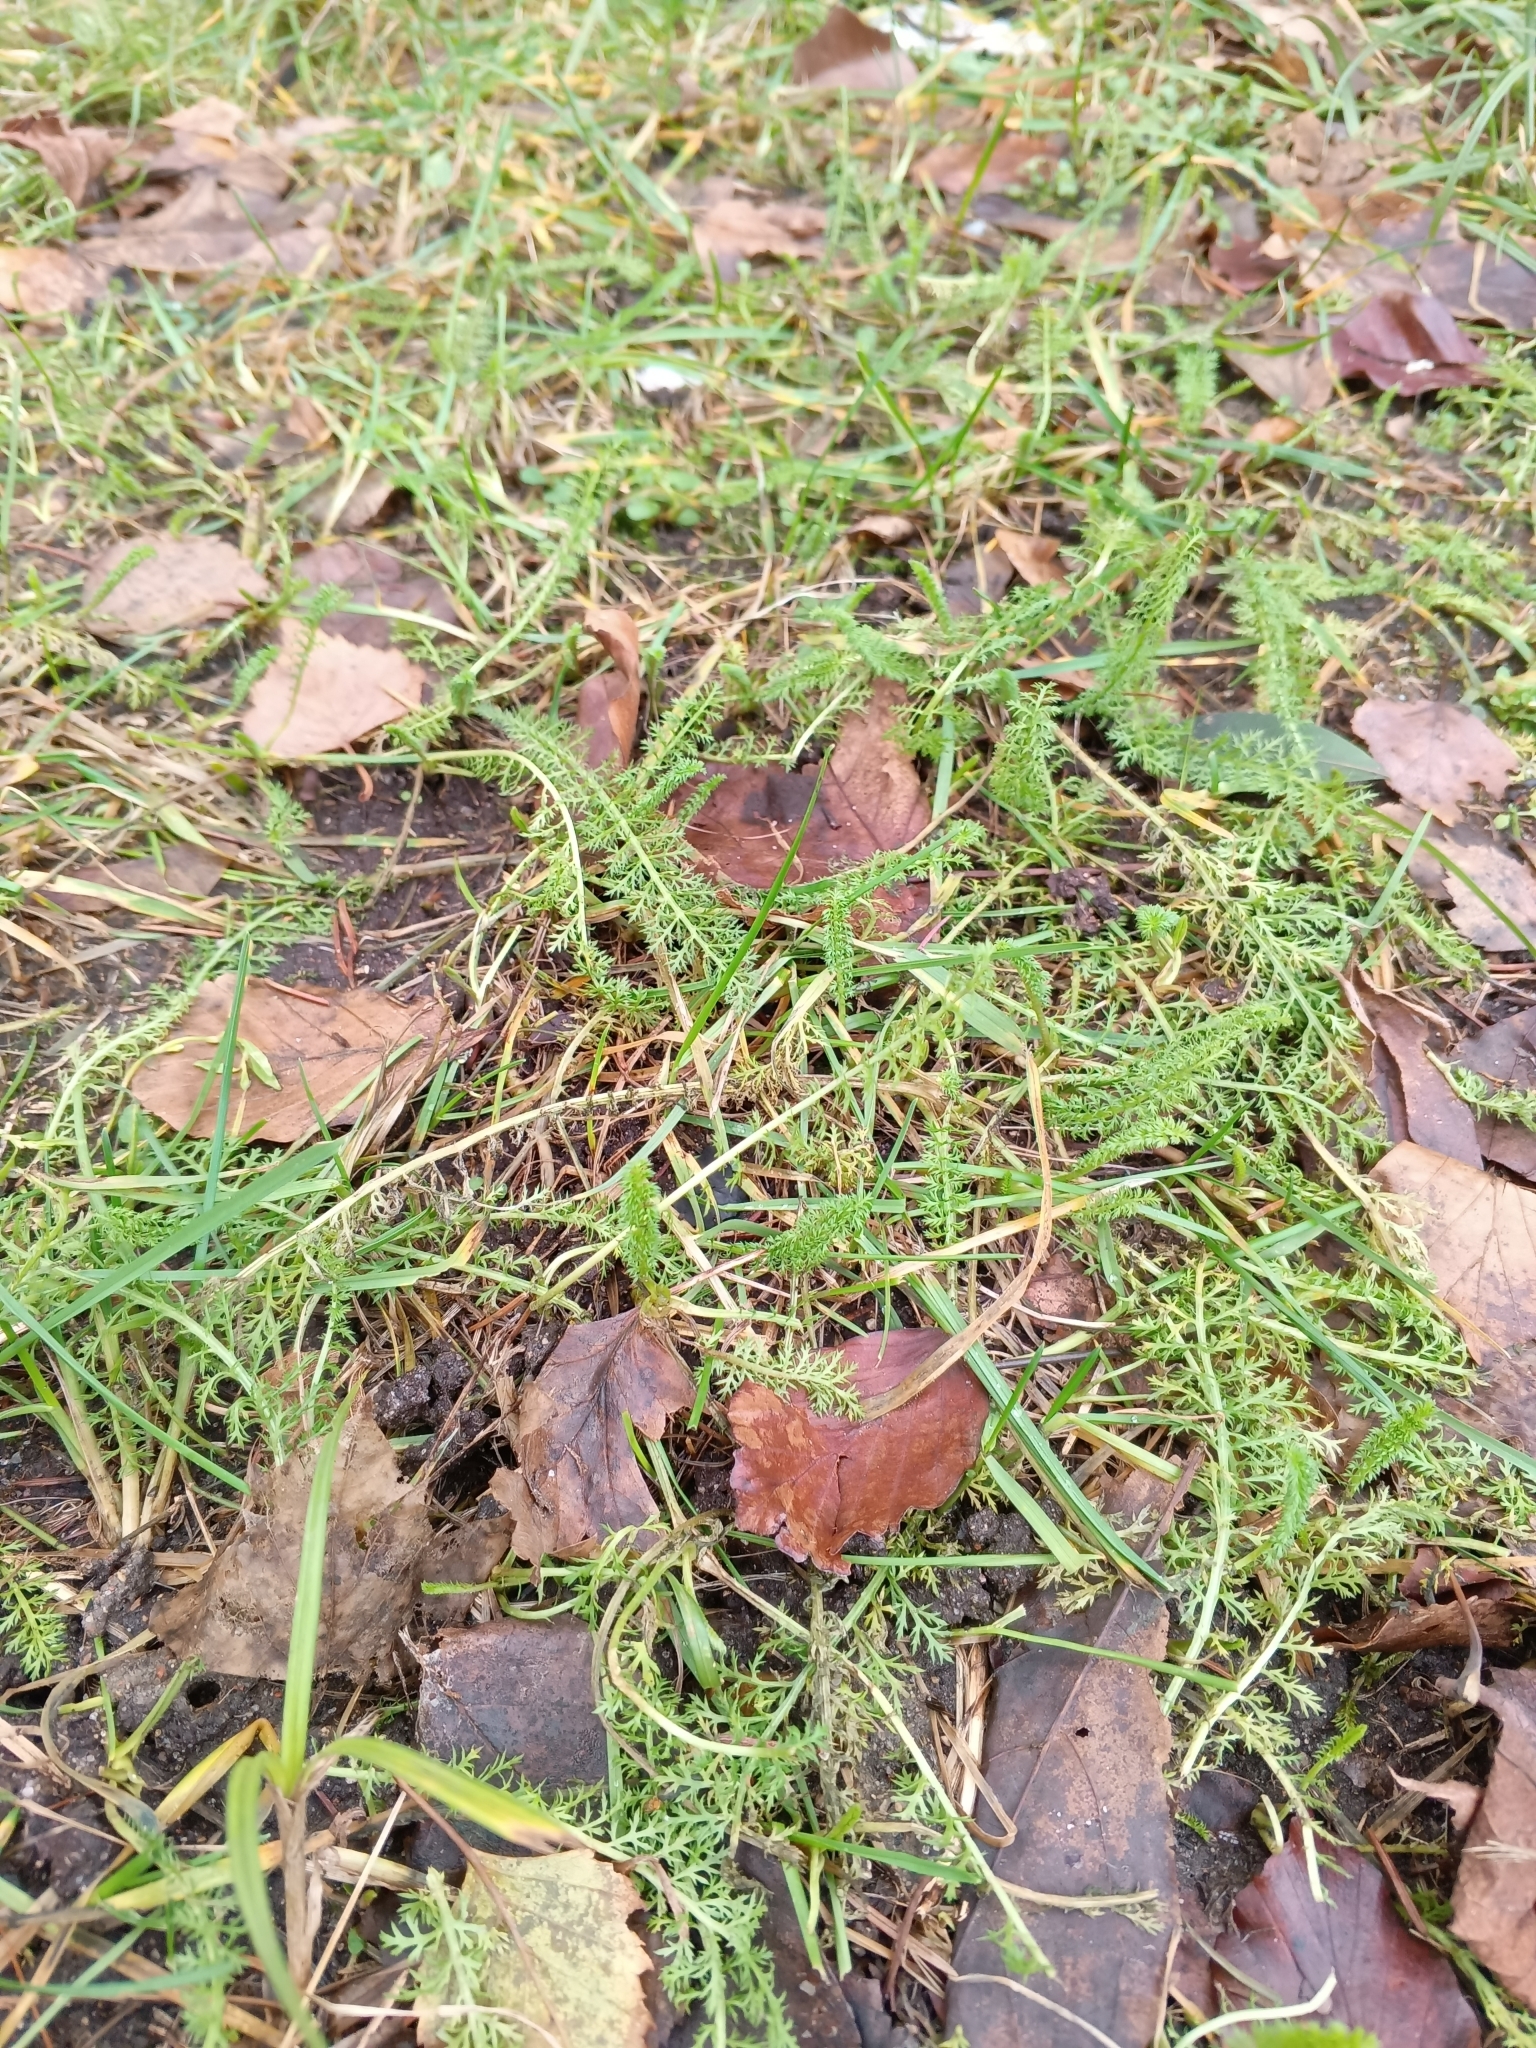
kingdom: Plantae
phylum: Tracheophyta
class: Magnoliopsida
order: Asterales
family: Asteraceae
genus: Achillea
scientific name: Achillea millefolium
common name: Yarrow
